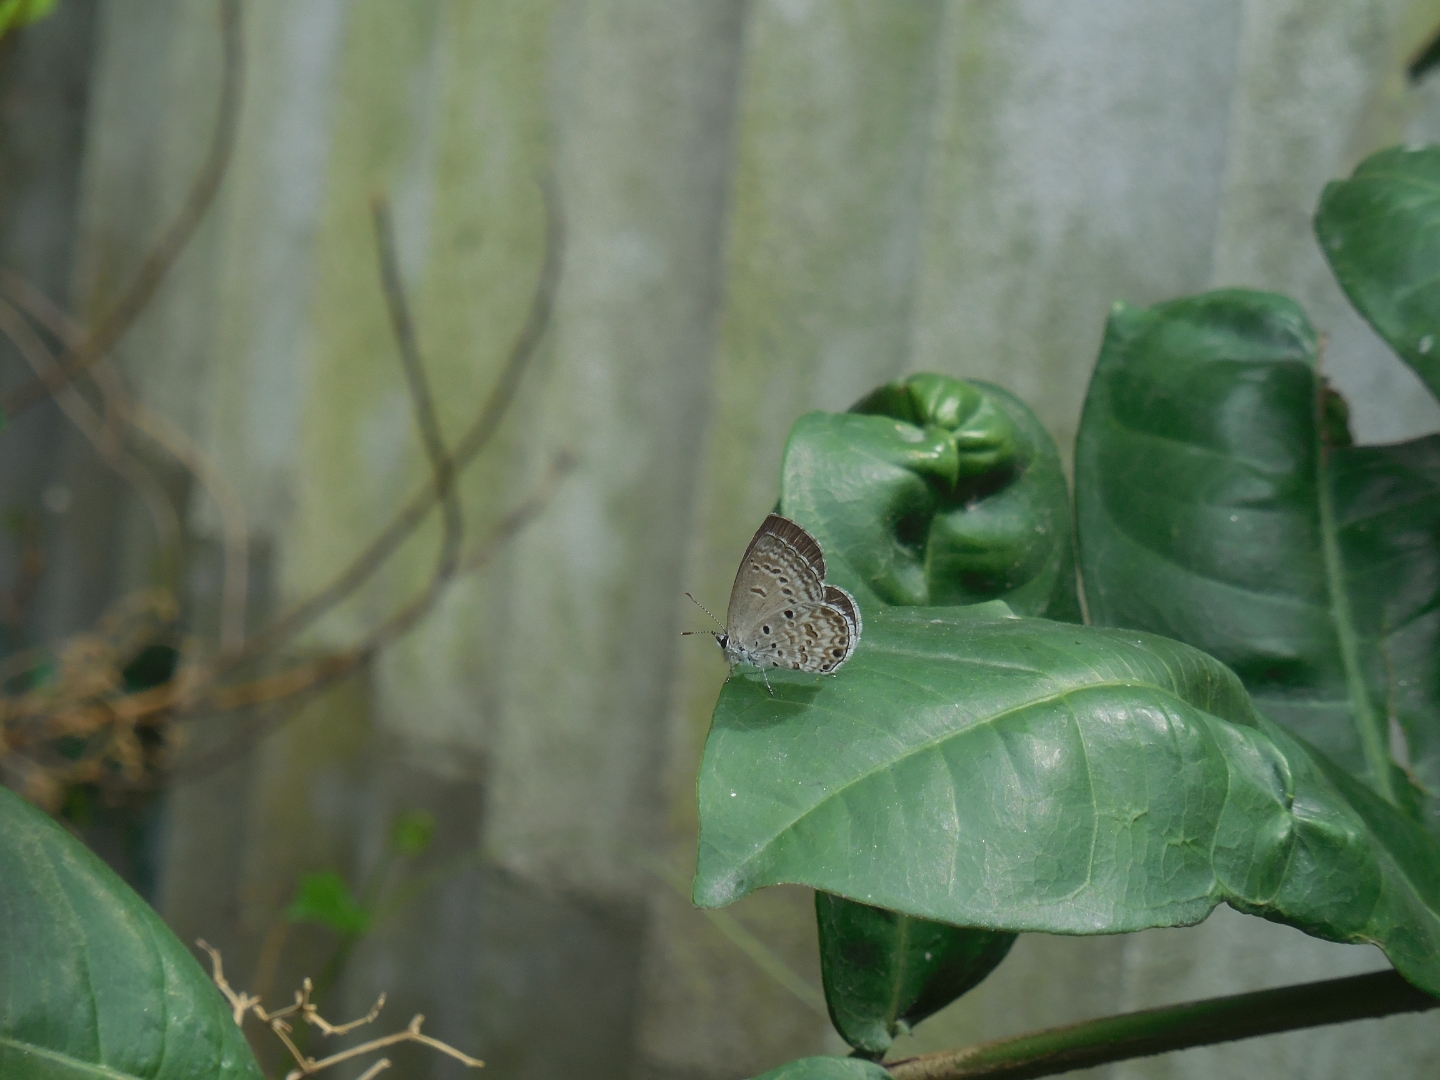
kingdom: Animalia
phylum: Arthropoda
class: Insecta
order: Lepidoptera
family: Lycaenidae
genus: Chilades
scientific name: Chilades laius
